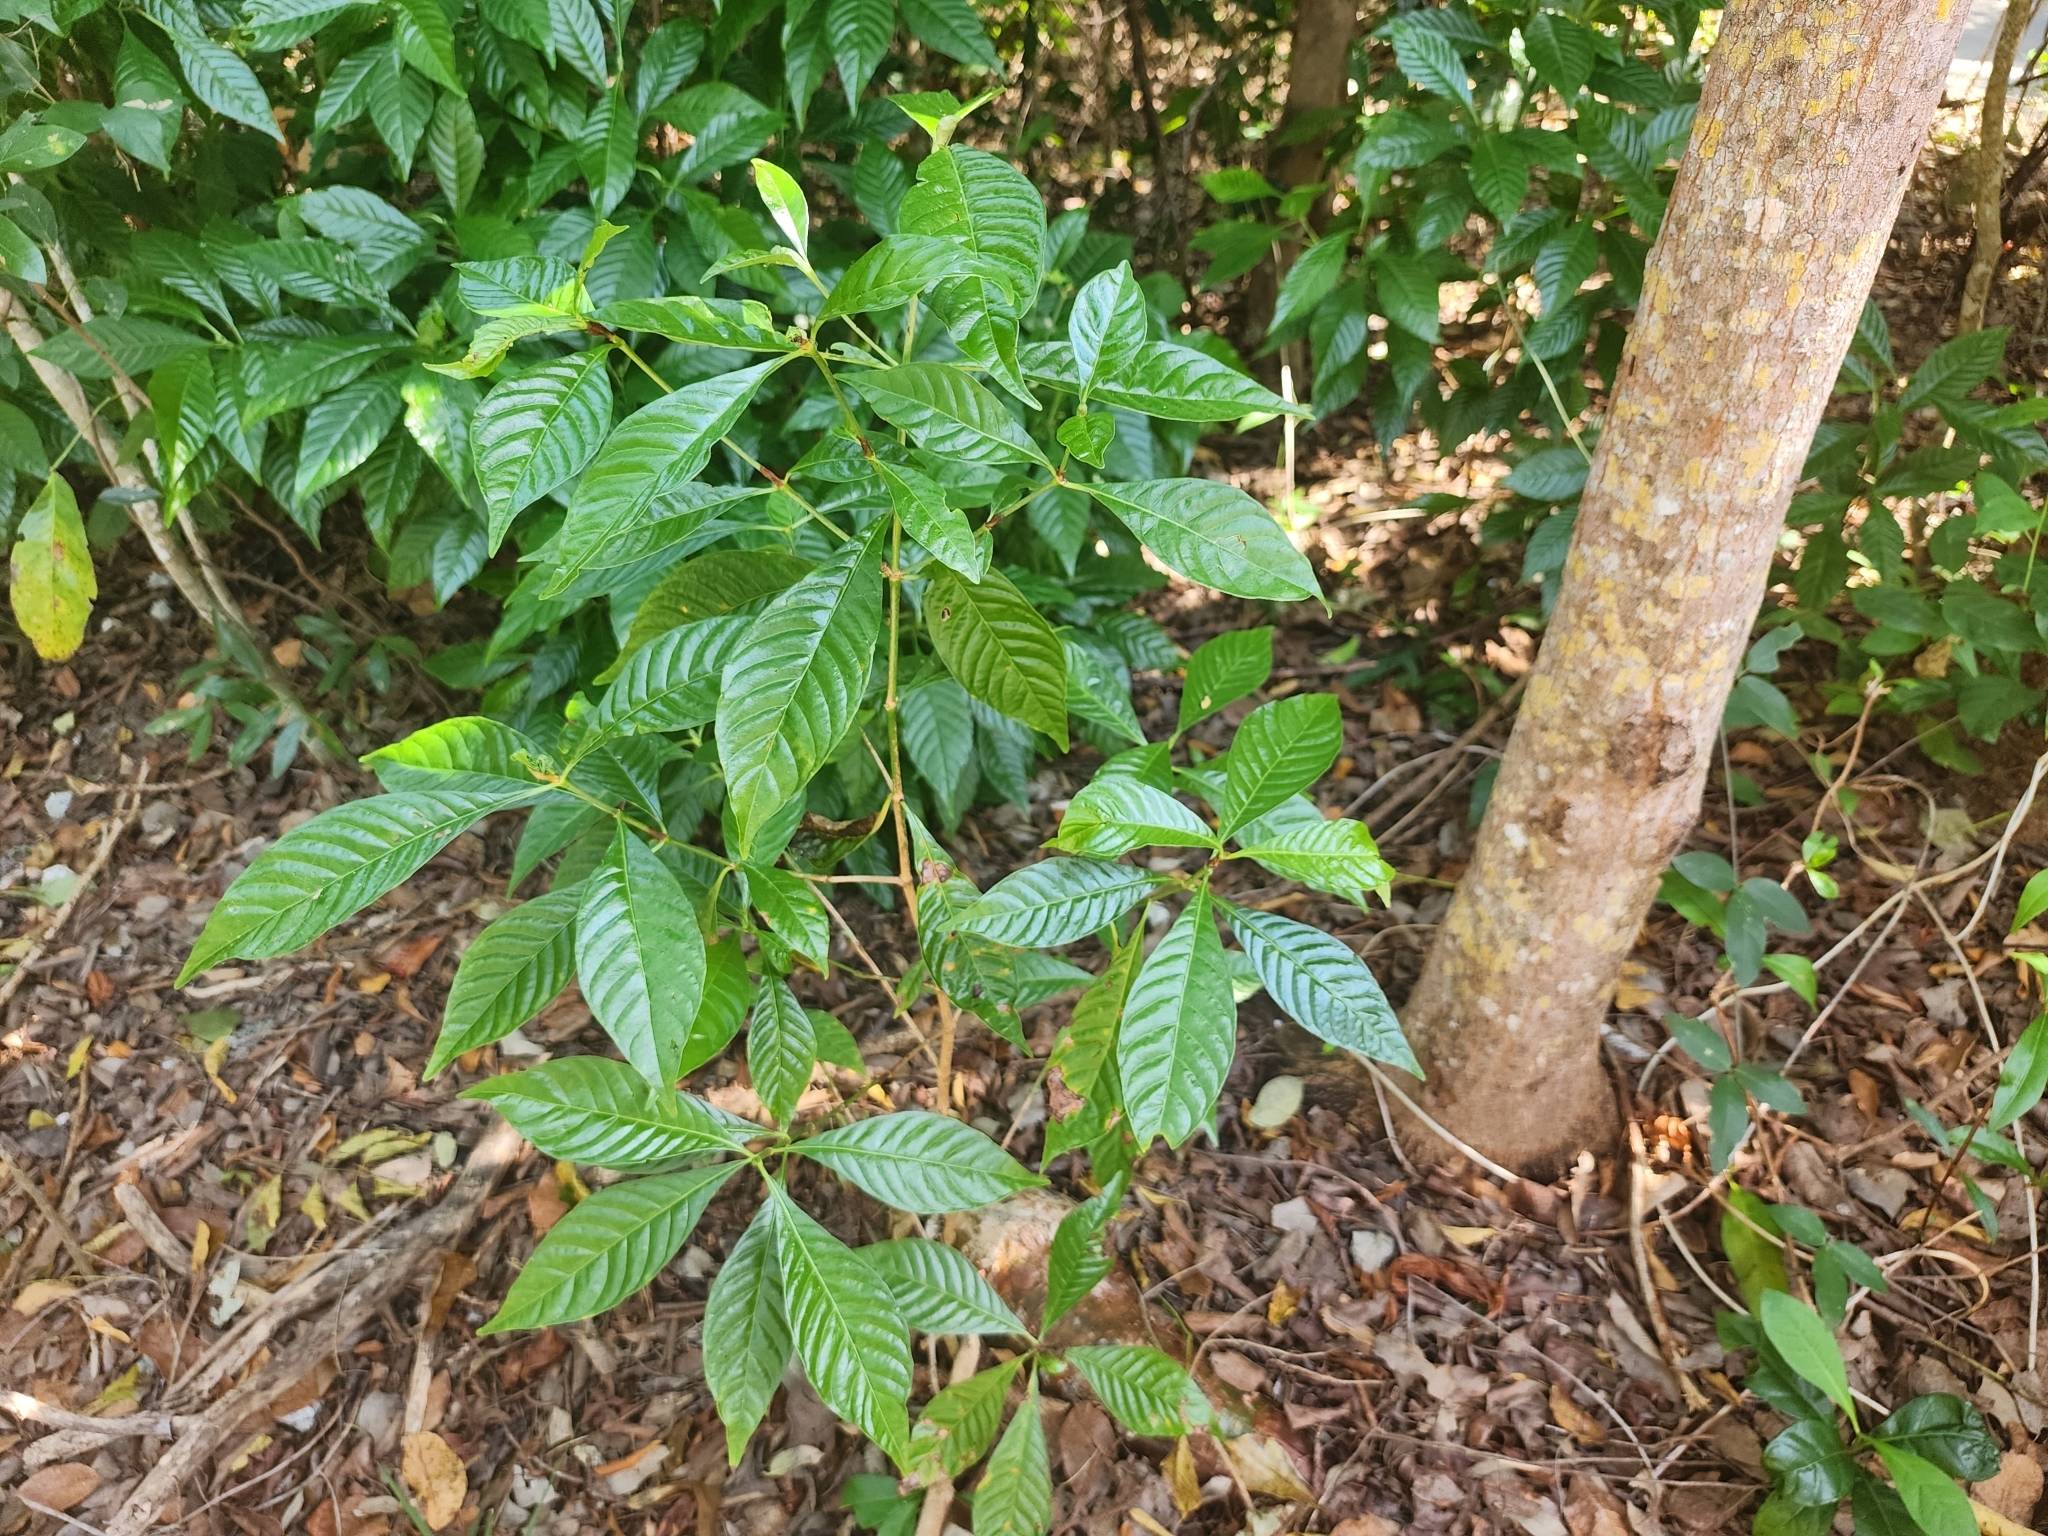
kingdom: Plantae
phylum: Tracheophyta
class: Magnoliopsida
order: Gentianales
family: Rubiaceae
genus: Psychotria
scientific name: Psychotria nervosa
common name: Bastard cankerberry
